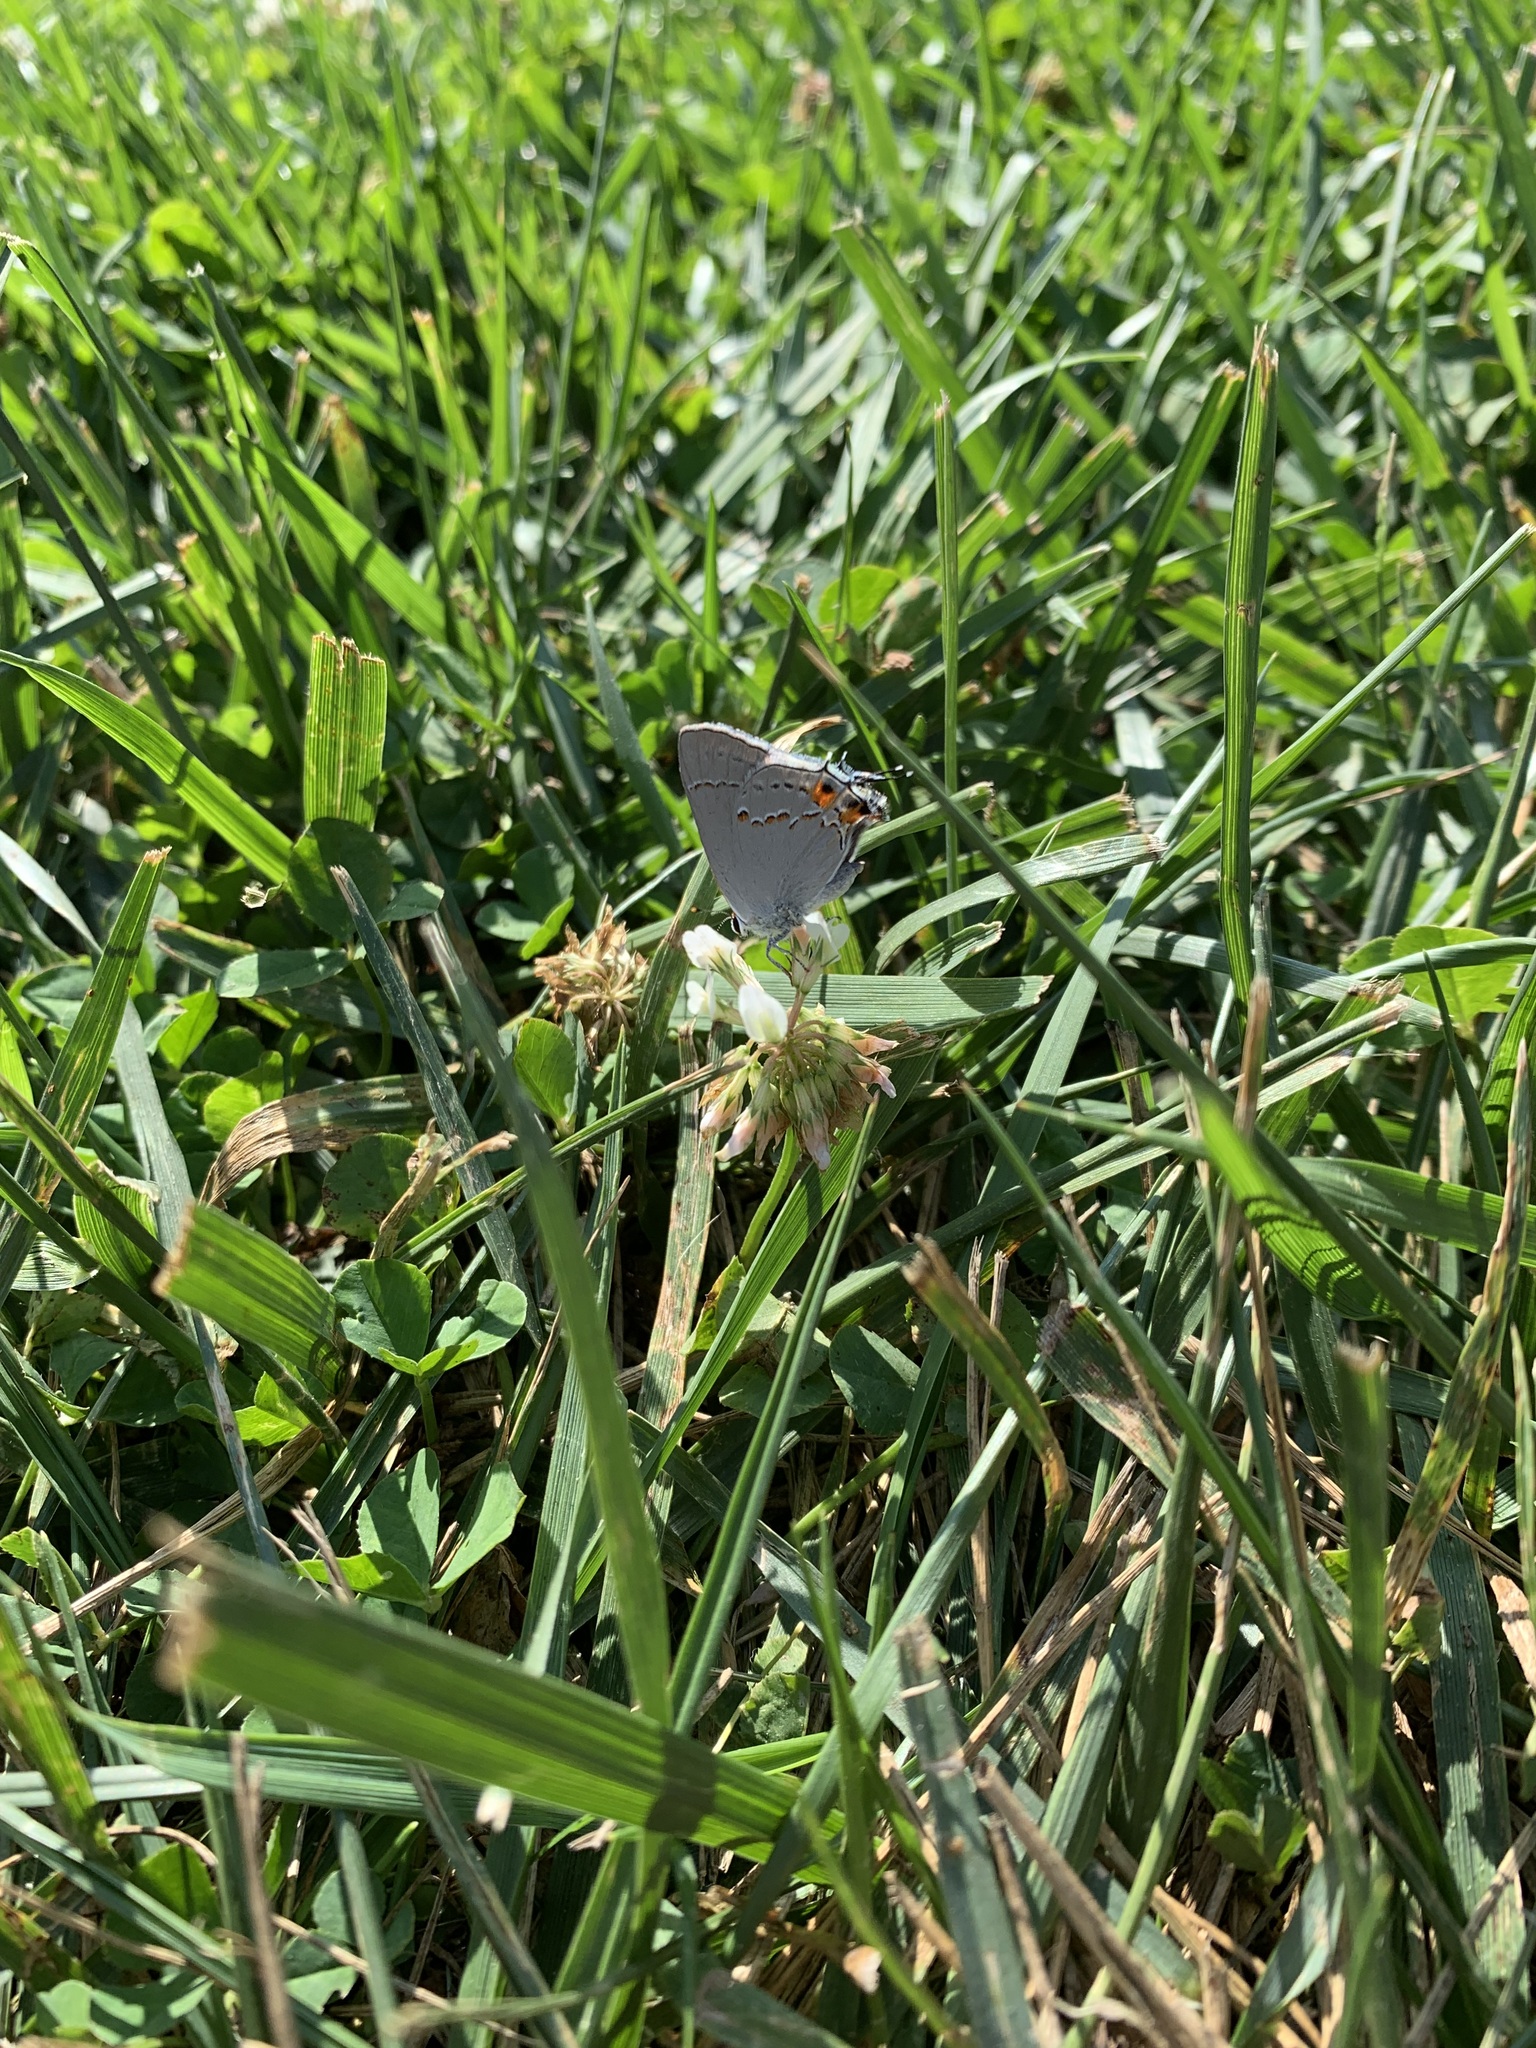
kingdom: Animalia
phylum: Arthropoda
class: Insecta
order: Lepidoptera
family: Lycaenidae
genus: Strymon
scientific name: Strymon melinus
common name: Gray hairstreak
